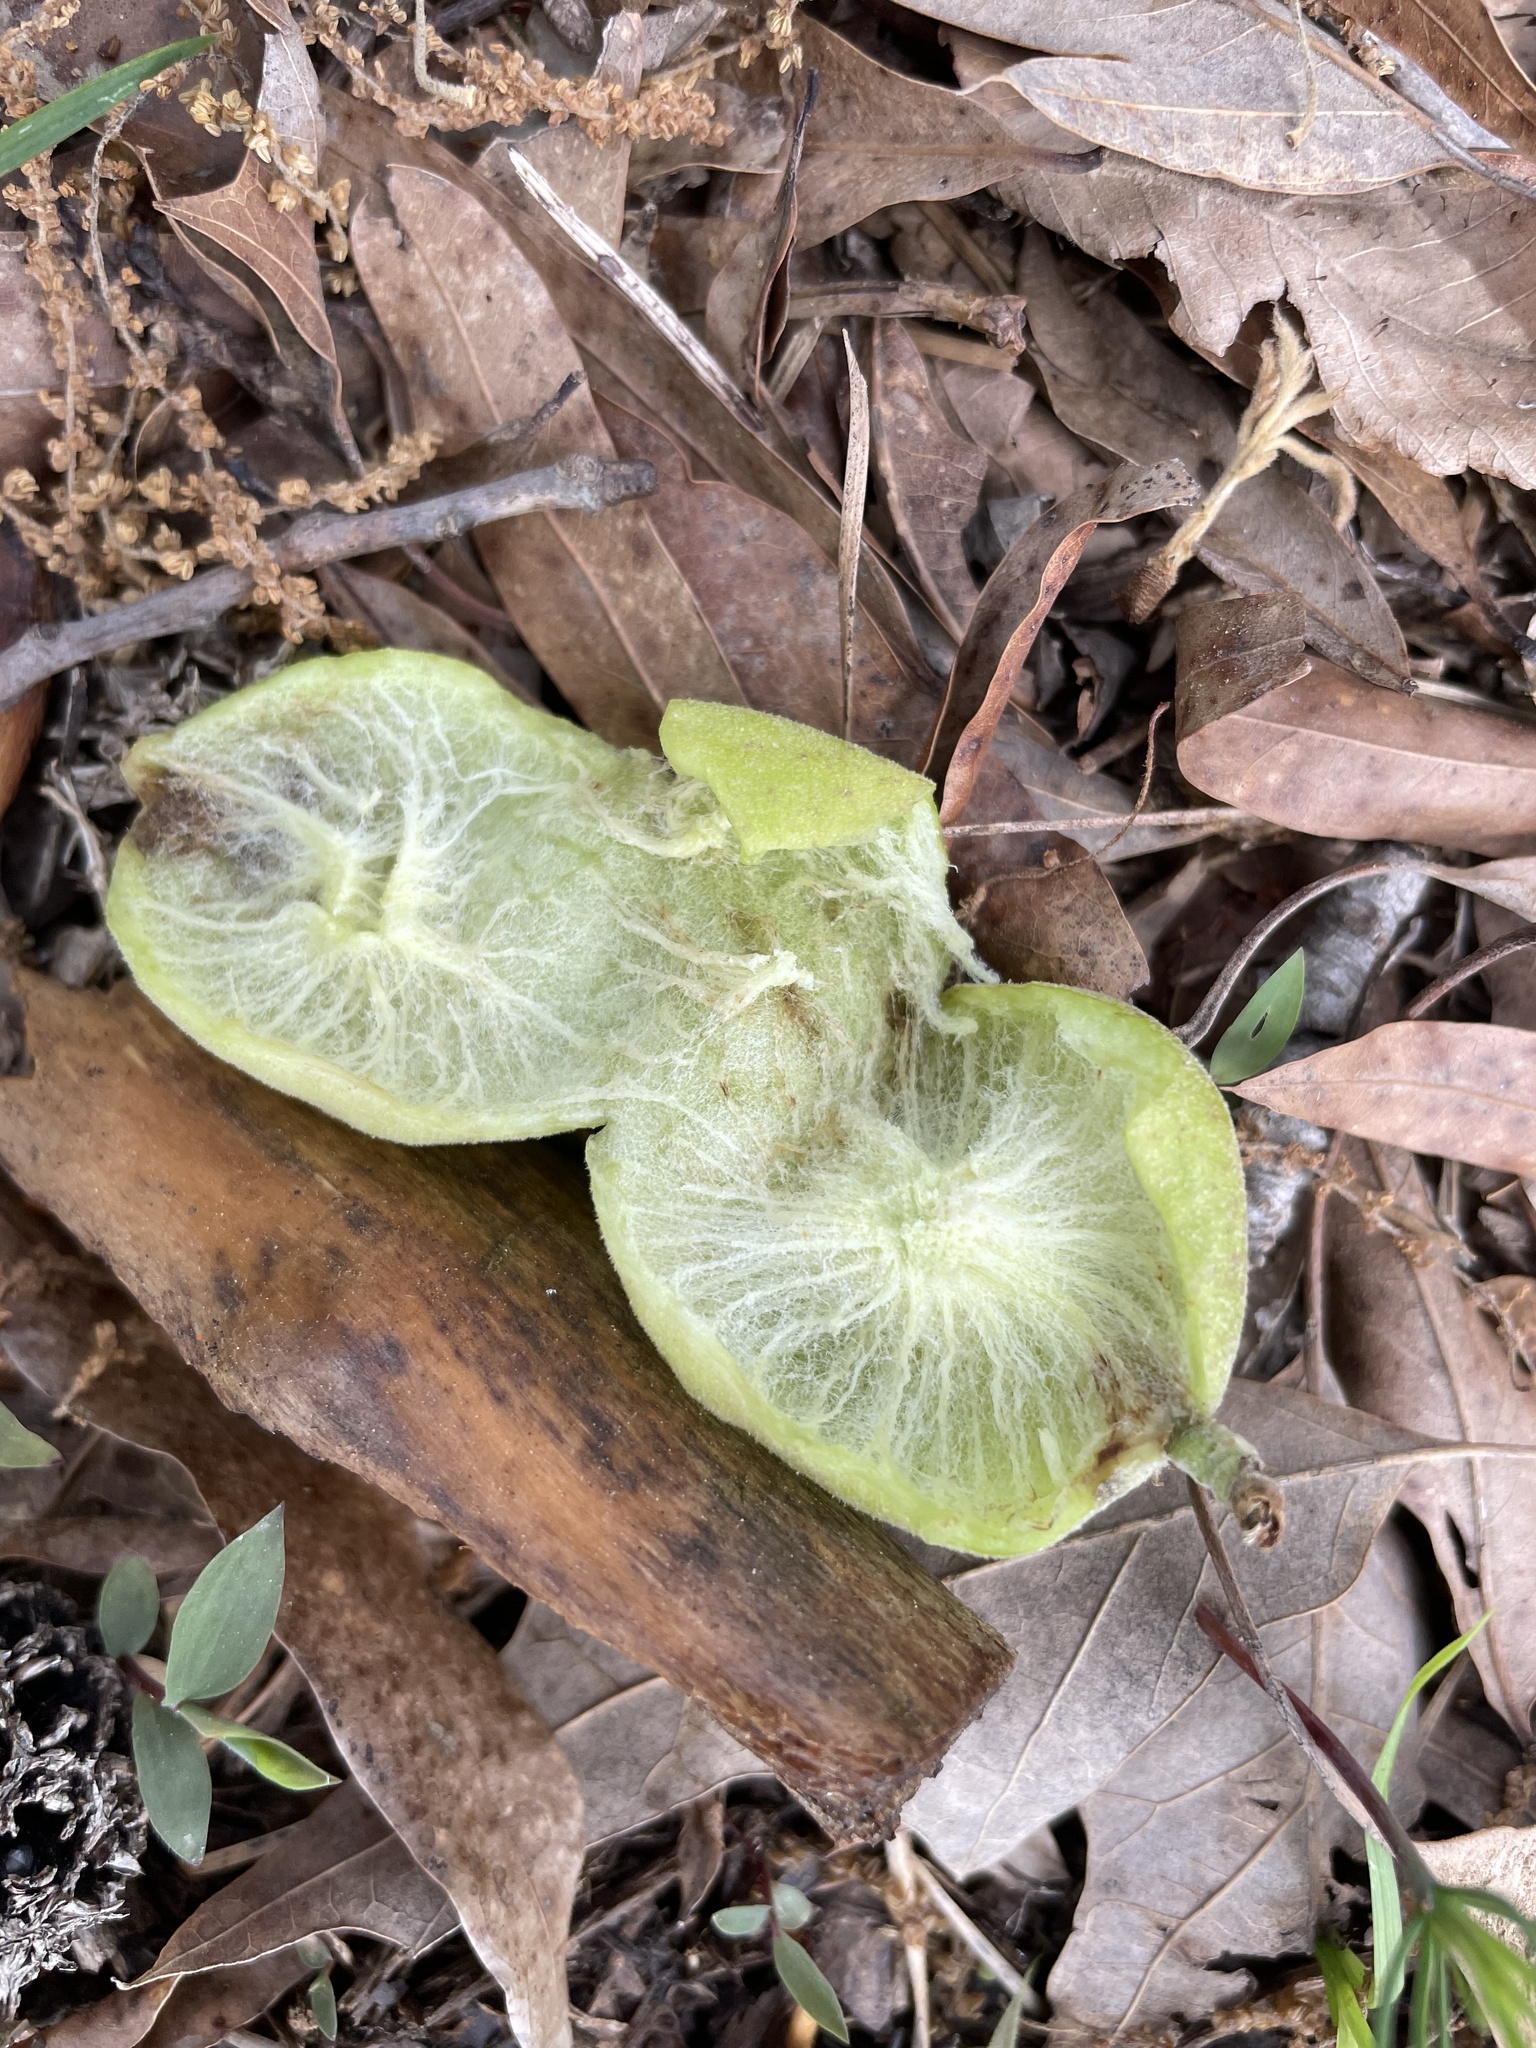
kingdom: Animalia
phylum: Arthropoda
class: Insecta
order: Hymenoptera
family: Cynipidae
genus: Amphibolips
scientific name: Amphibolips
